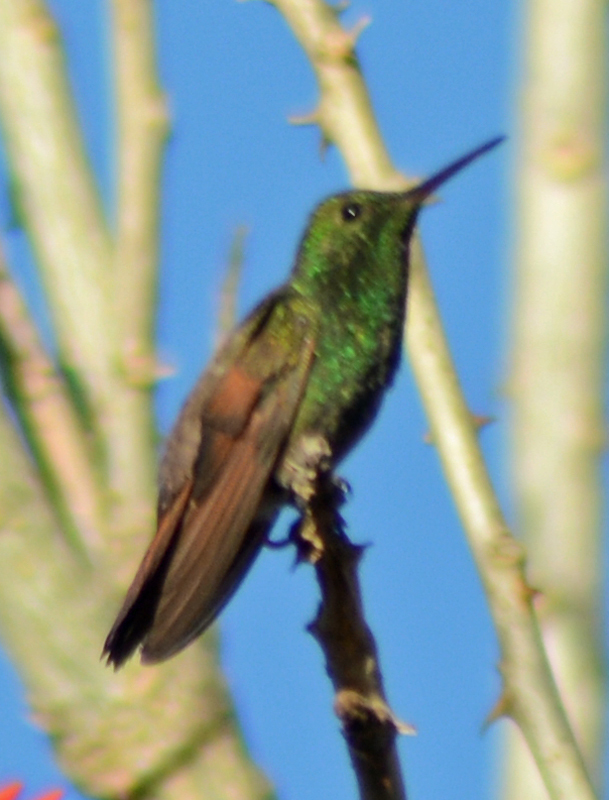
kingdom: Animalia
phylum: Chordata
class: Aves
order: Apodiformes
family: Trochilidae
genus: Saucerottia
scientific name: Saucerottia beryllina
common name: Berylline hummingbird
